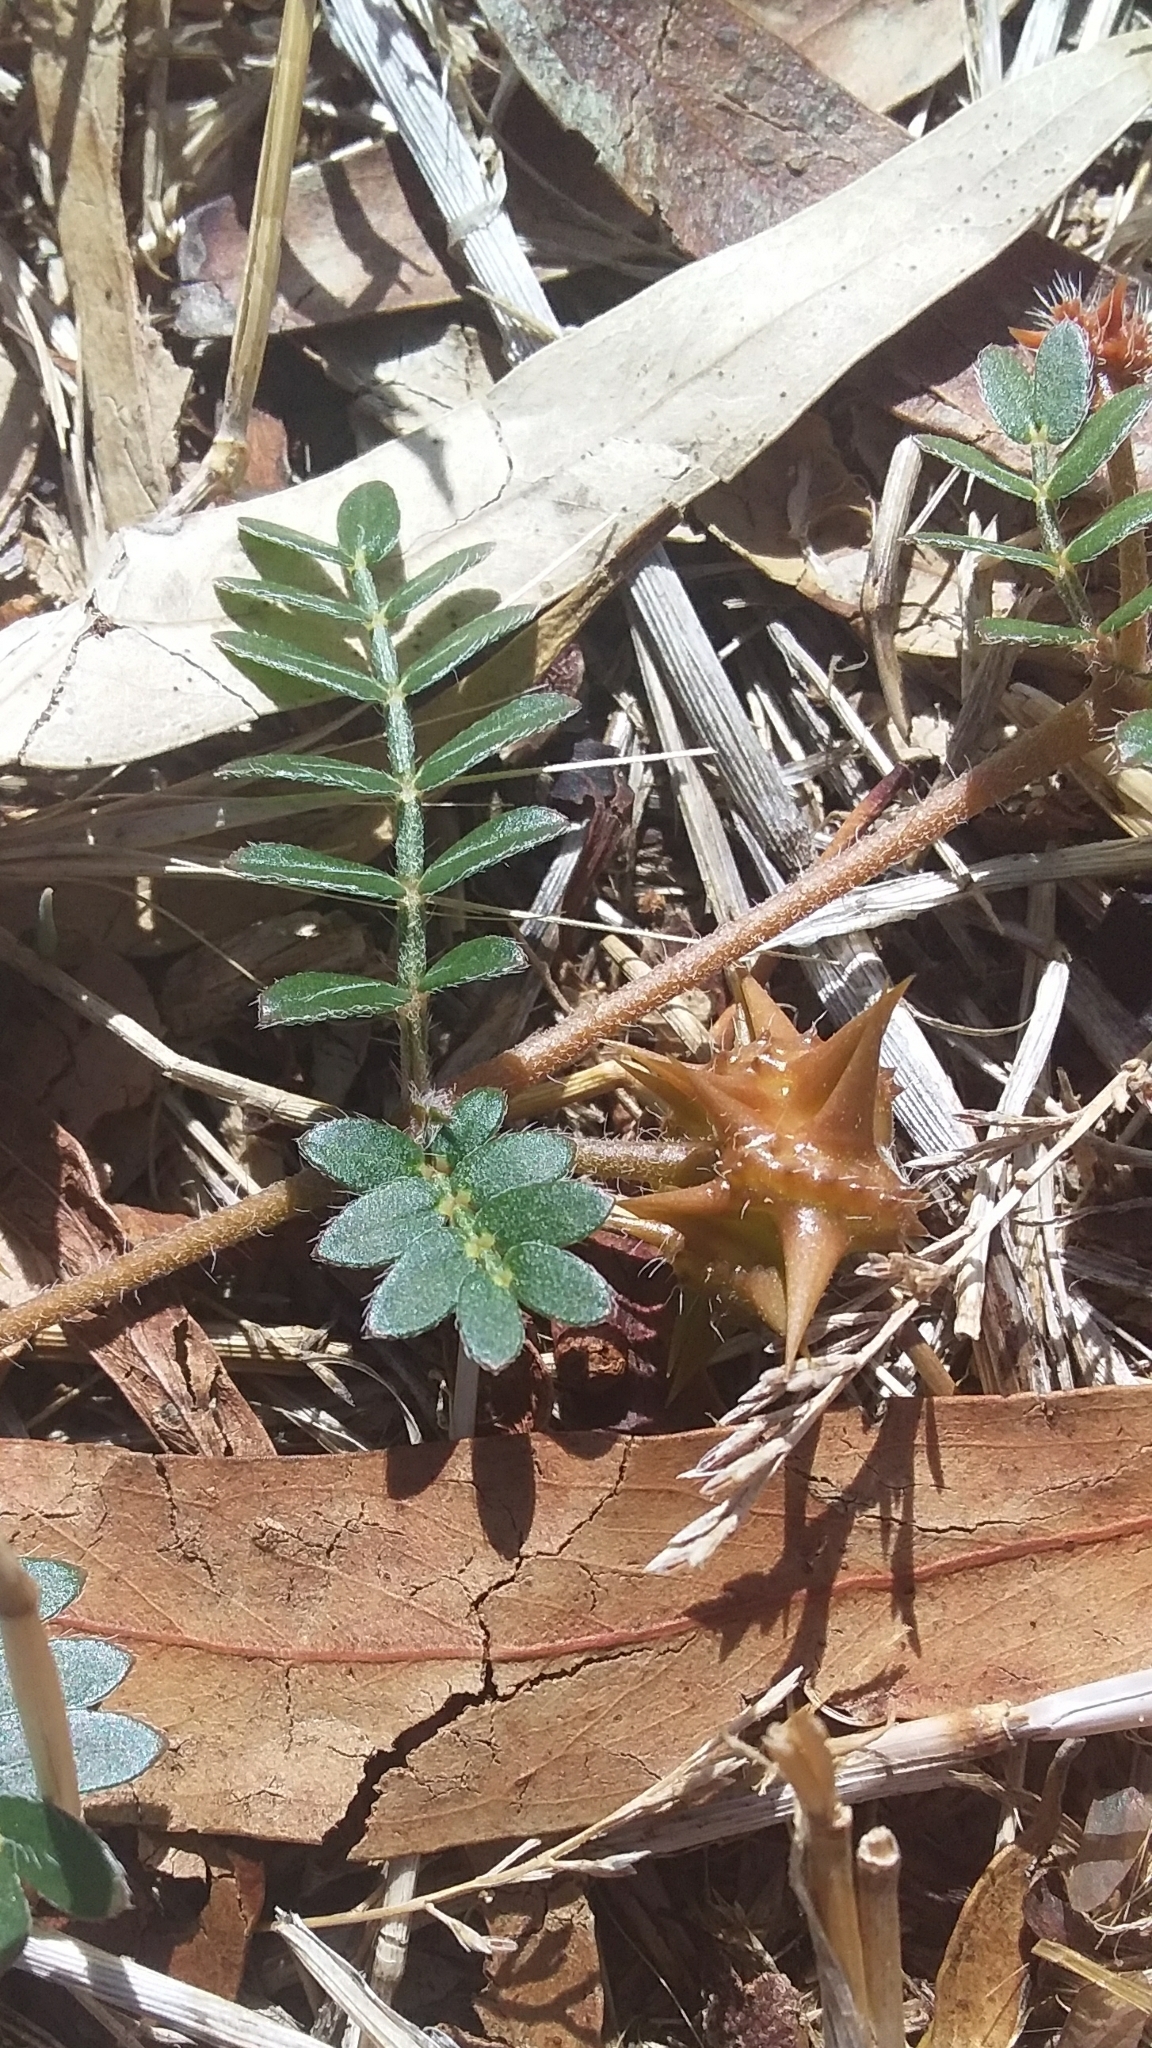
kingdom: Plantae
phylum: Tracheophyta
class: Magnoliopsida
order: Zygophyllales
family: Zygophyllaceae
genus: Tribulus
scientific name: Tribulus terrestris
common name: Puncturevine
